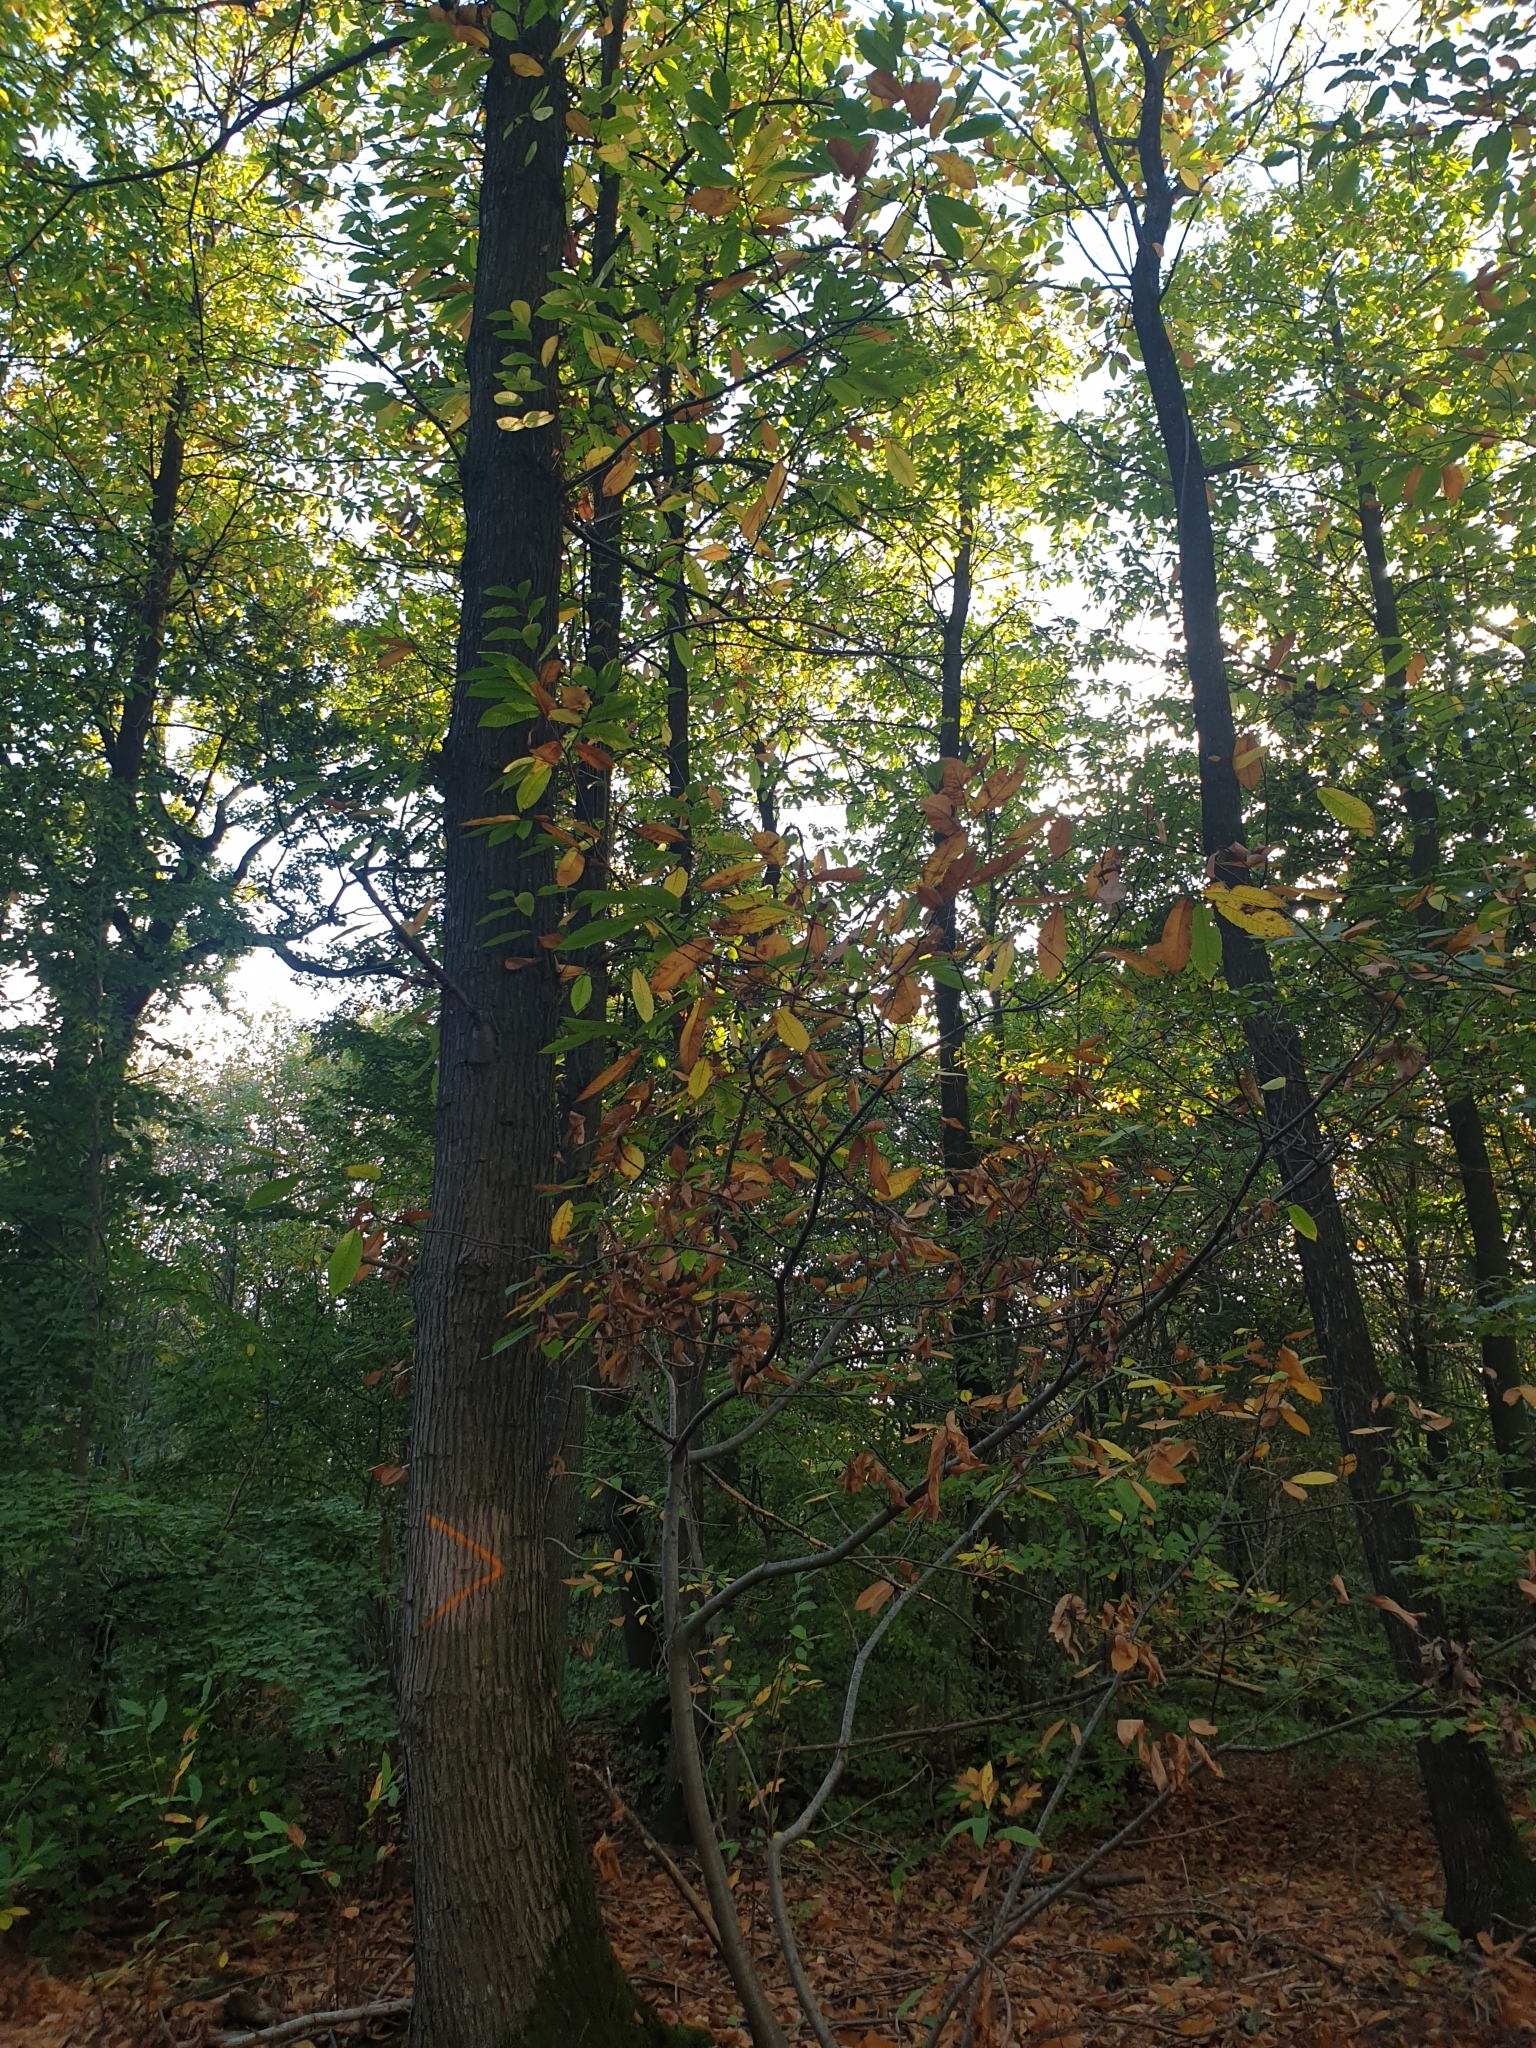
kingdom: Plantae
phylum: Tracheophyta
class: Magnoliopsida
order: Fagales
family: Fagaceae
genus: Castanea
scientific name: Castanea sativa
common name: Sweet chestnut
